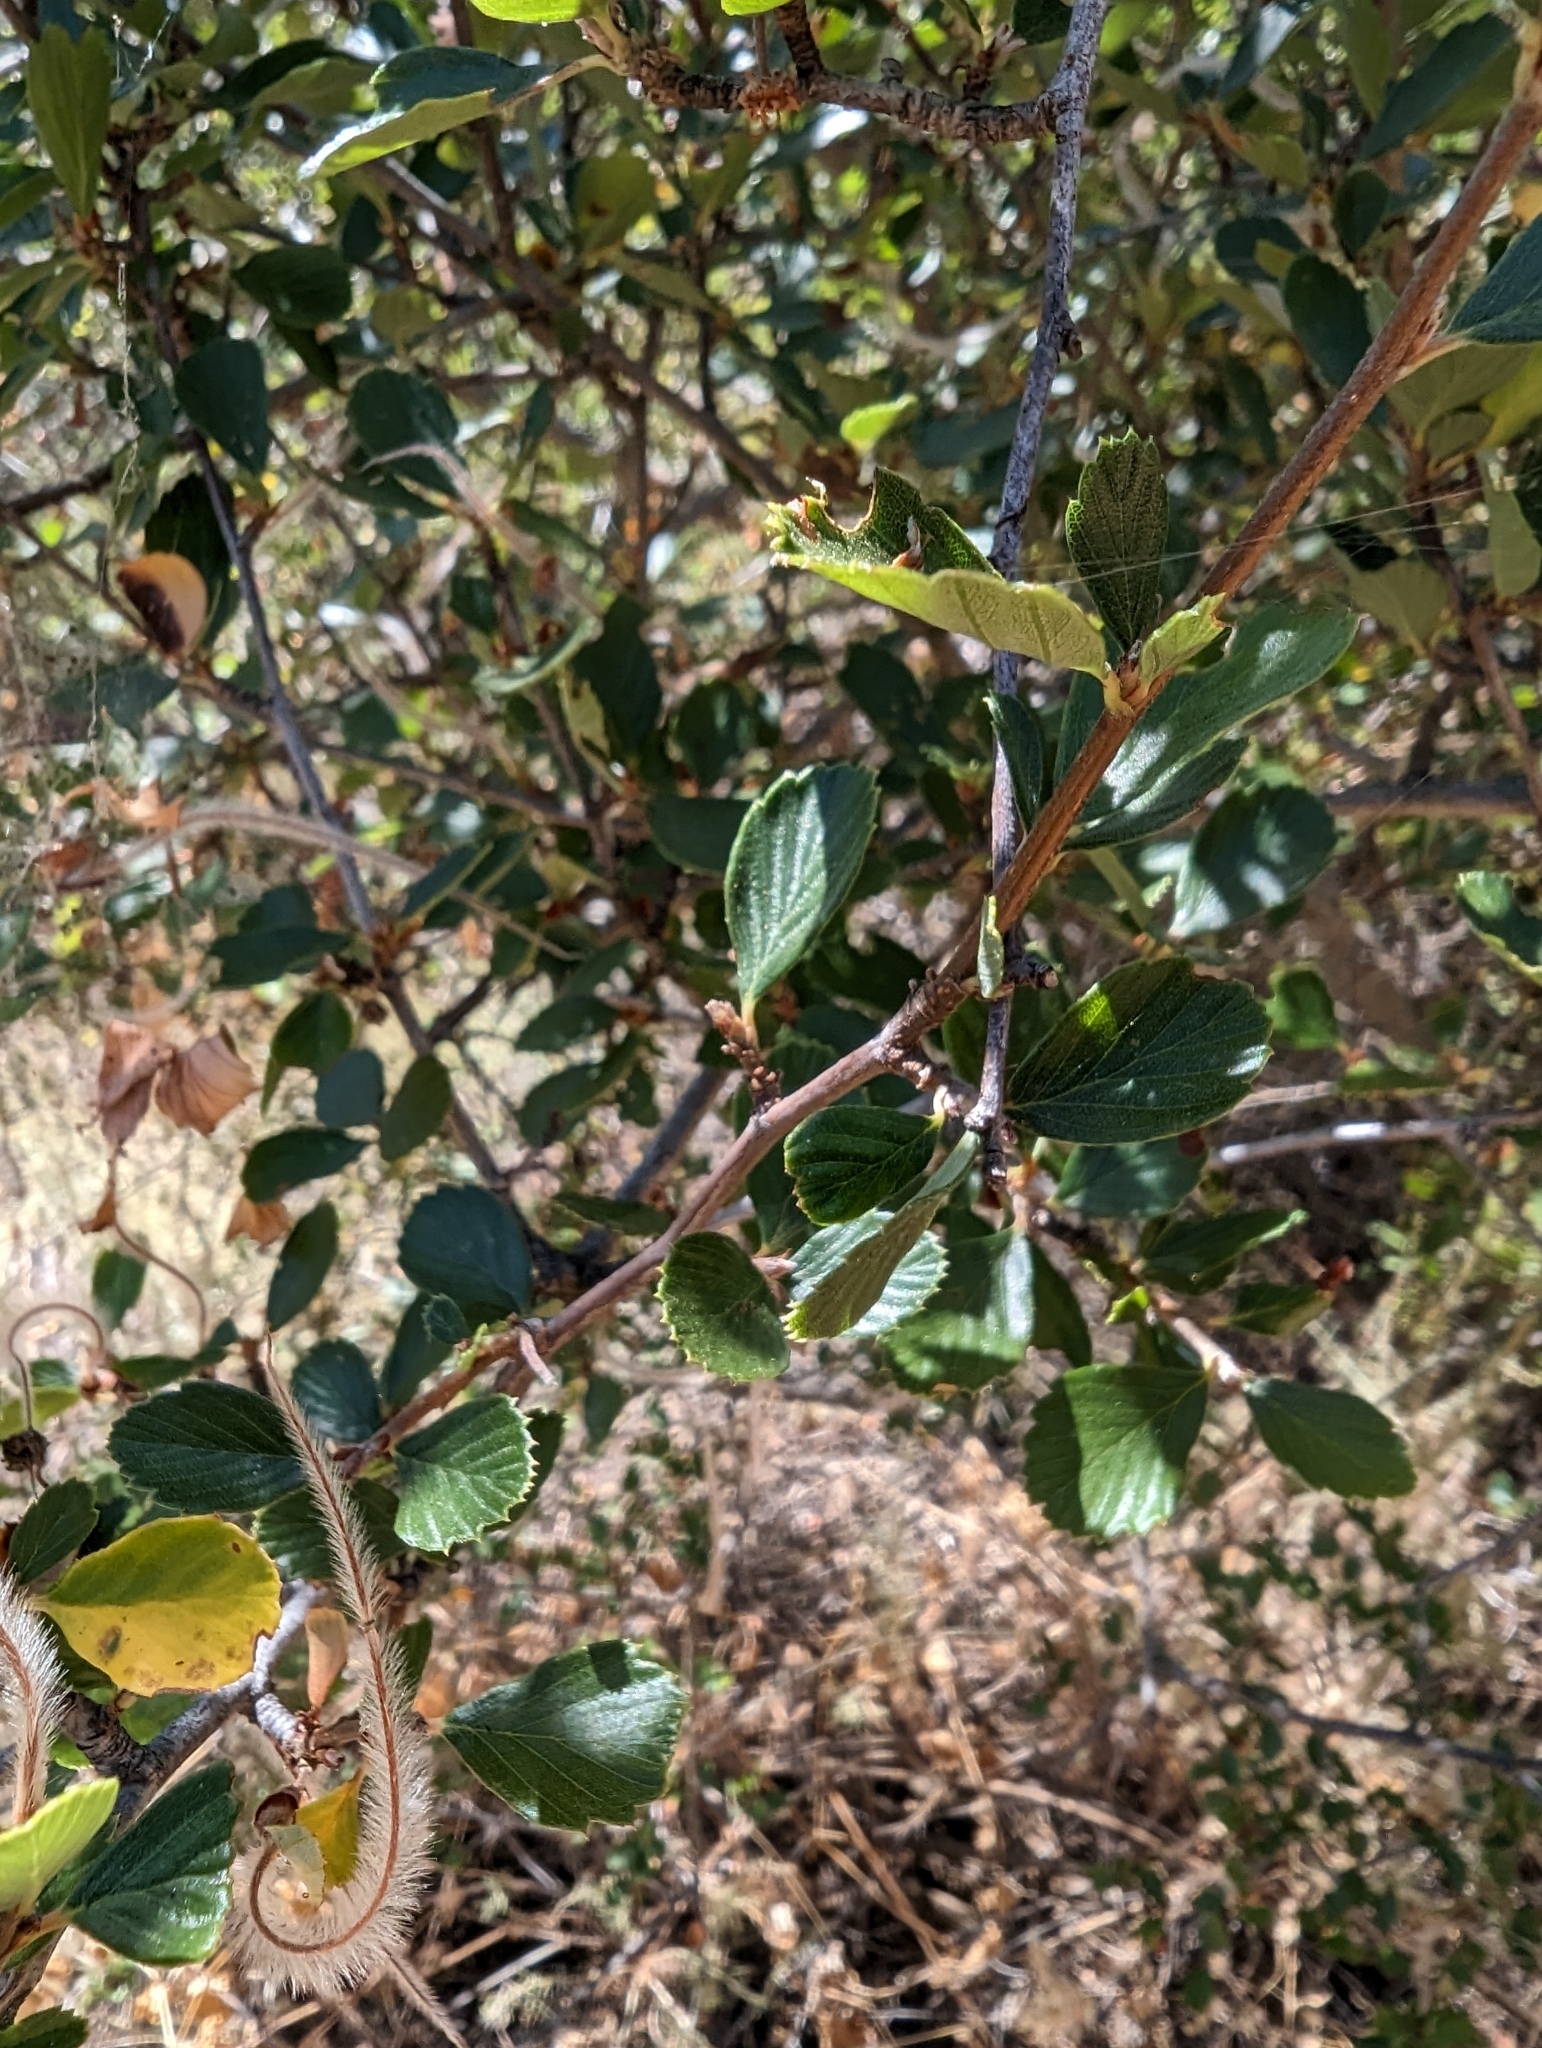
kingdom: Plantae
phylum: Tracheophyta
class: Magnoliopsida
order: Rosales
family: Rosaceae
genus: Cercocarpus
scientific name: Cercocarpus betuloides
